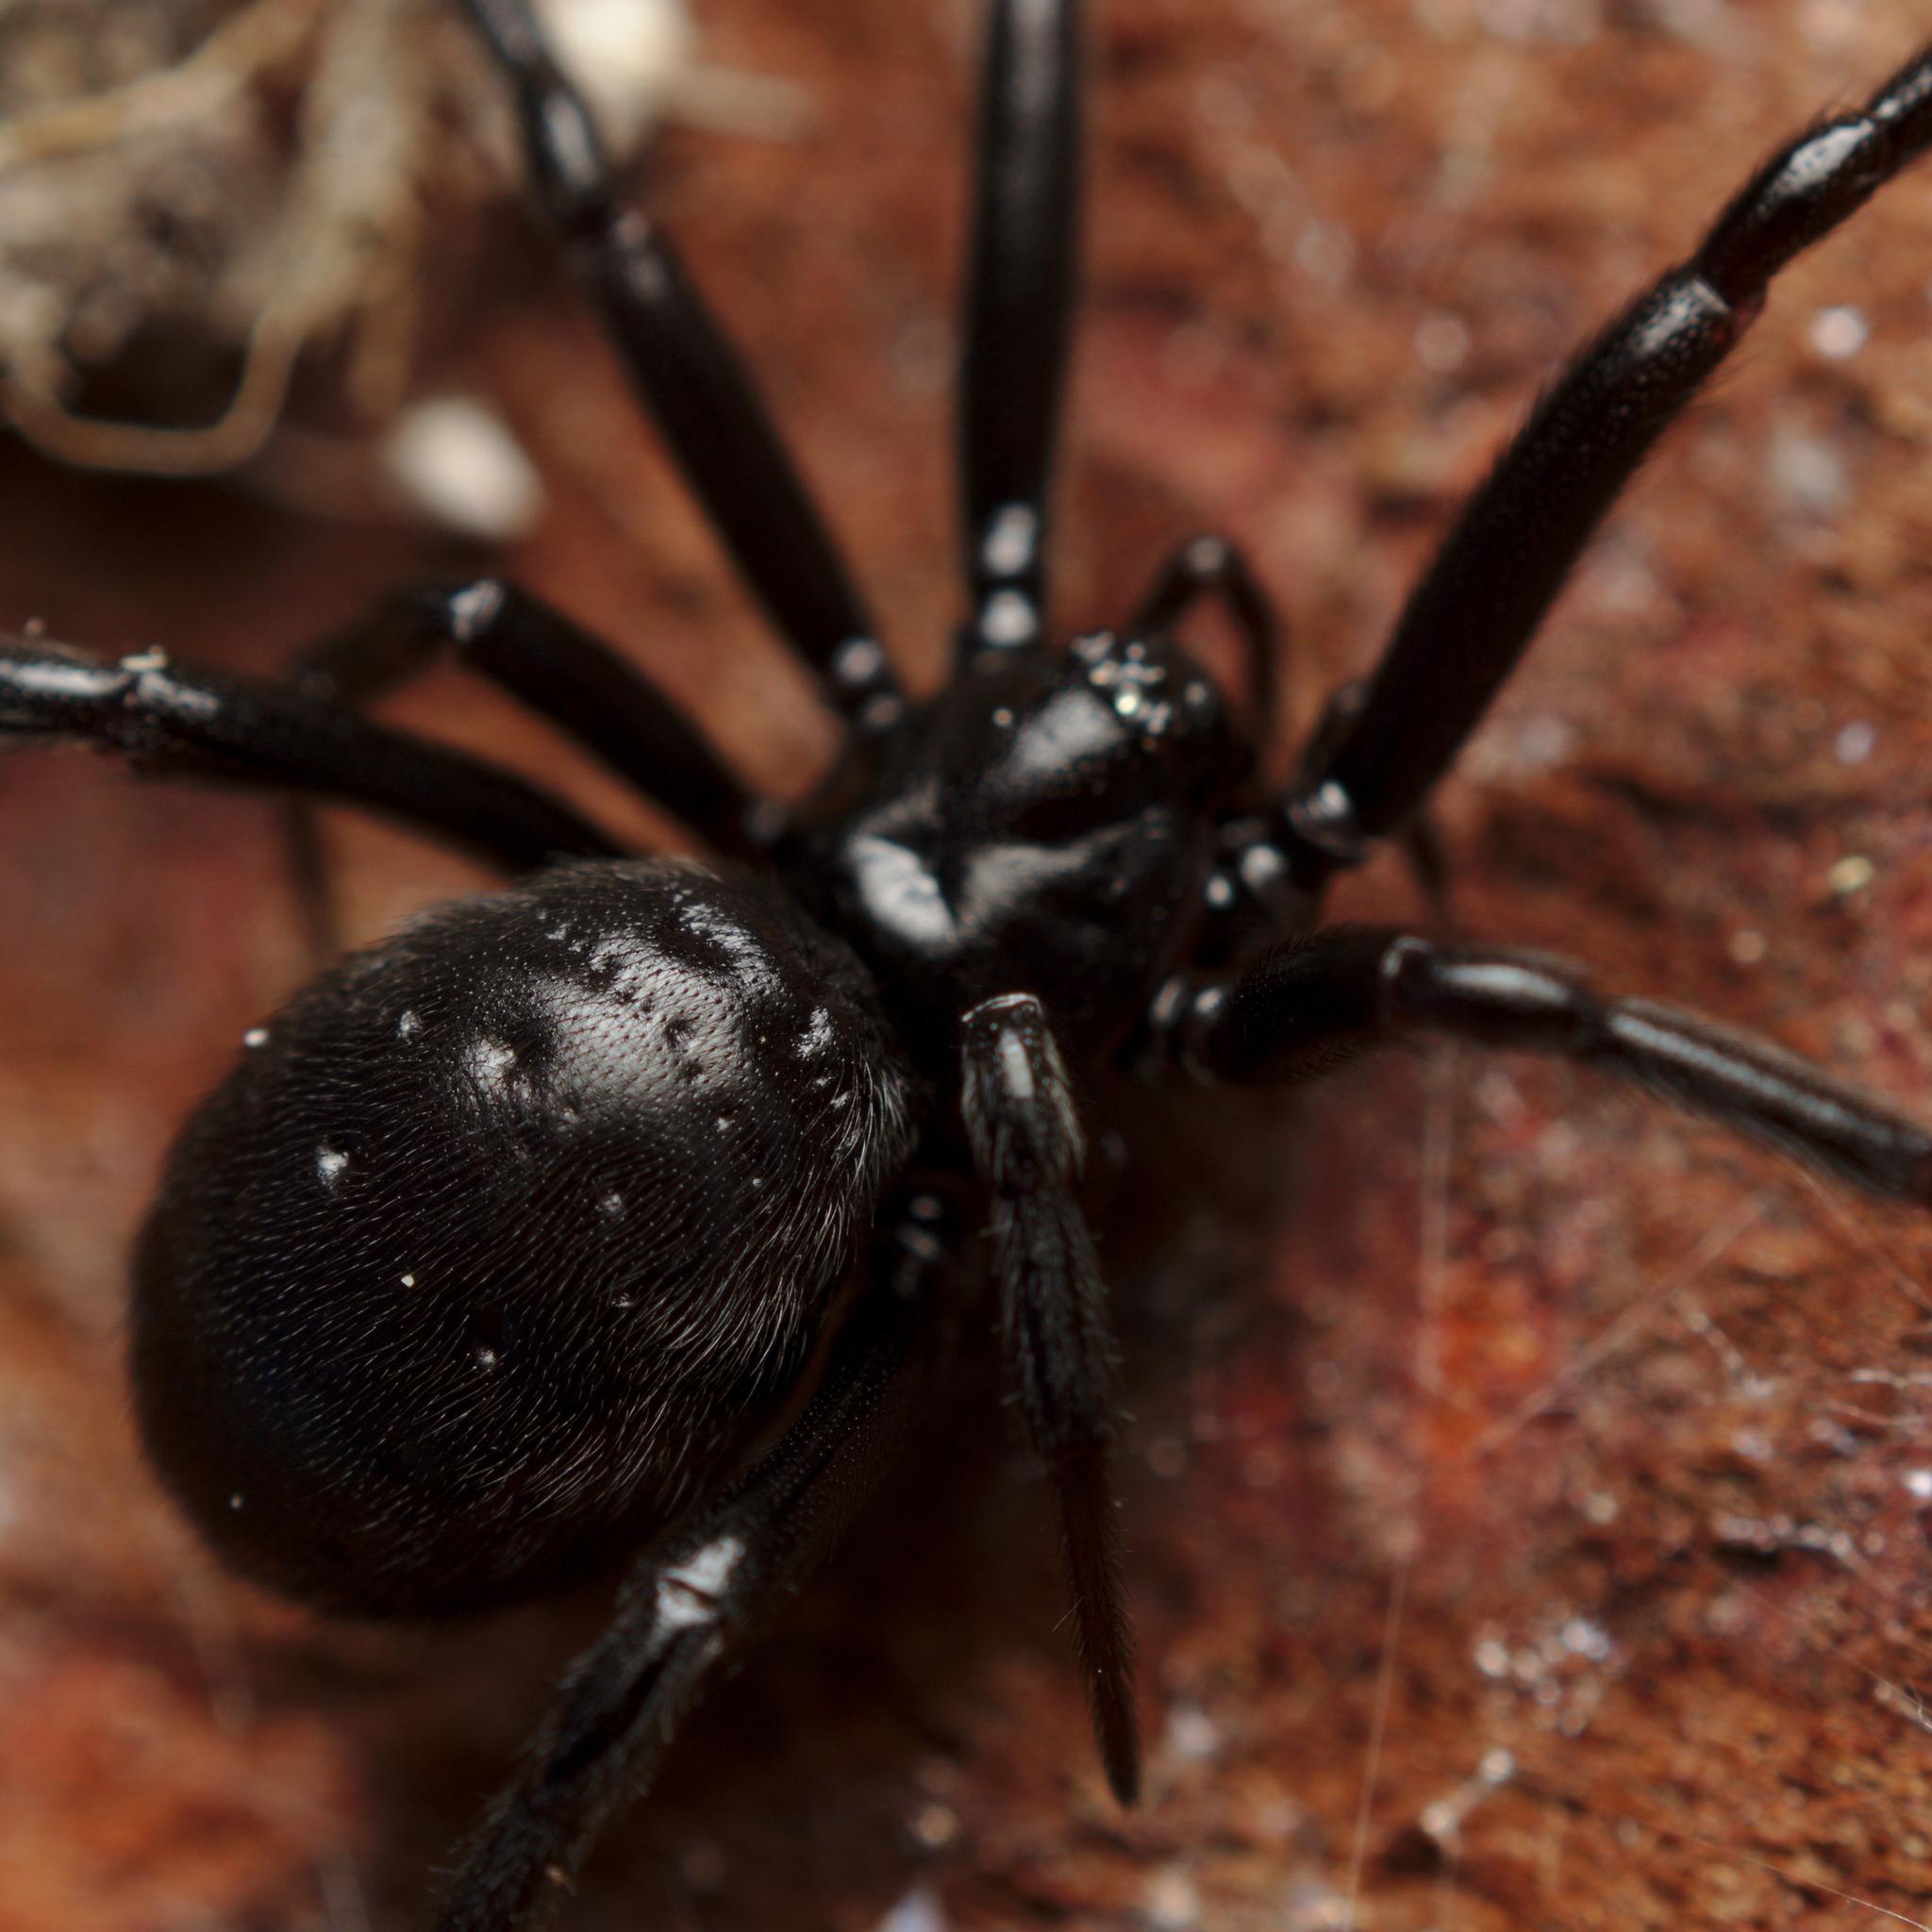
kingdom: Animalia
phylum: Arthropoda
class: Arachnida
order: Araneae
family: Theridiidae
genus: Steatoda
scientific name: Steatoda capensis
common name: Cobweb weaver
